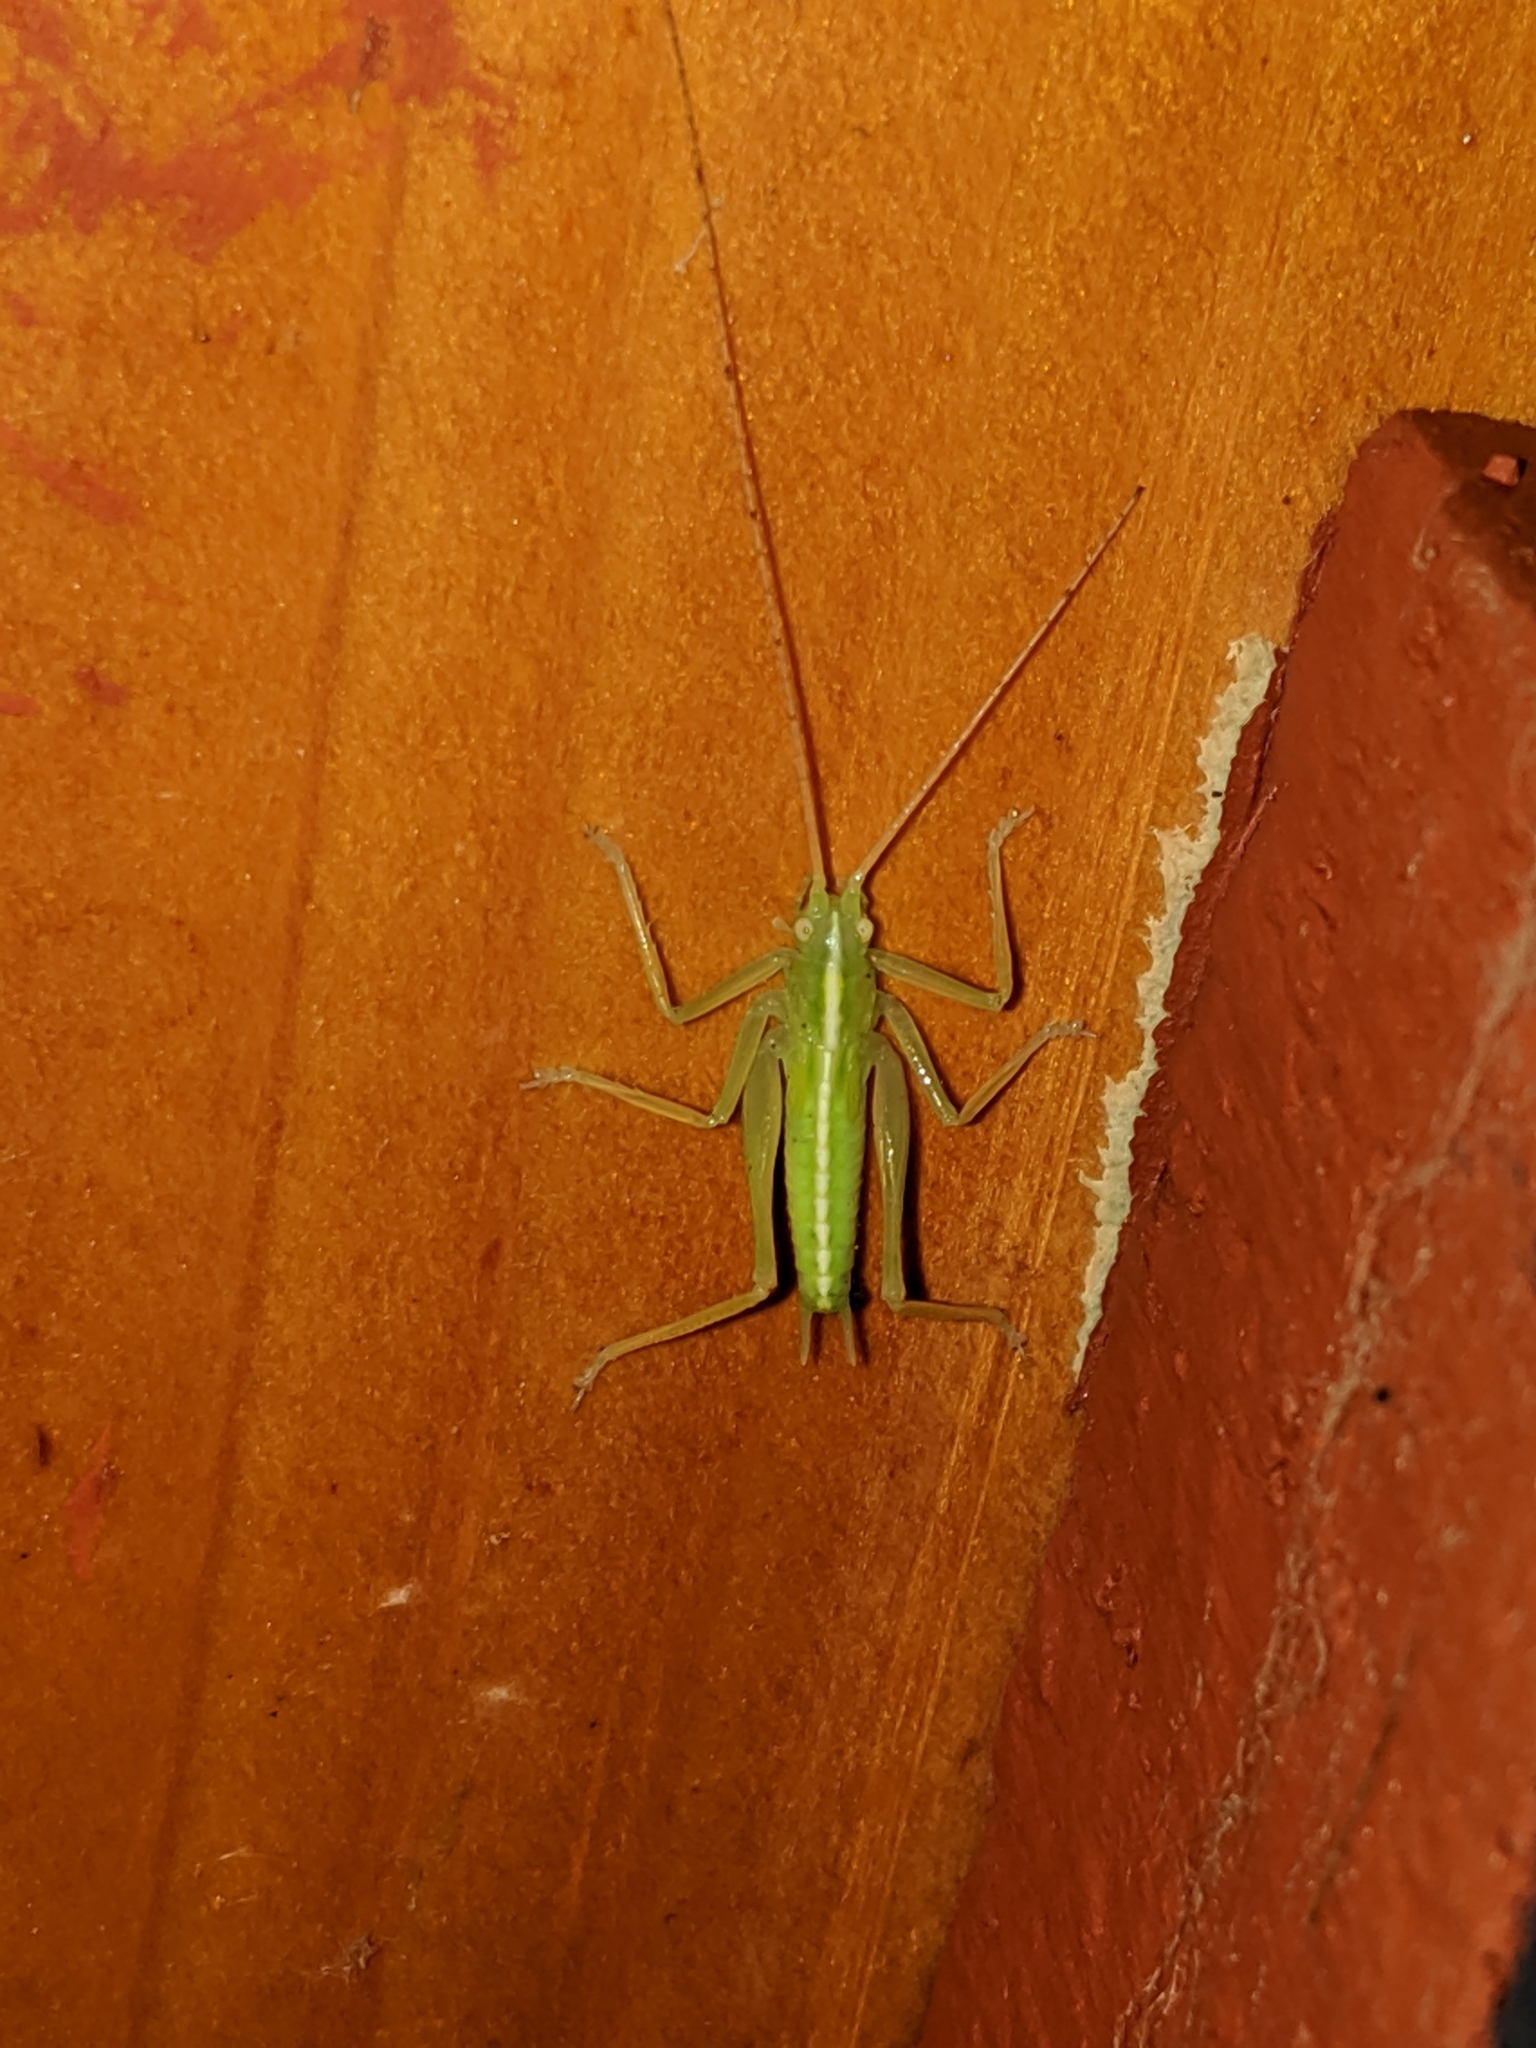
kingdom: Animalia
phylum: Arthropoda
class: Insecta
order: Orthoptera
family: Tettigoniidae
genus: Meconema
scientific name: Meconema thalassinum
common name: Oak bush-cricket
